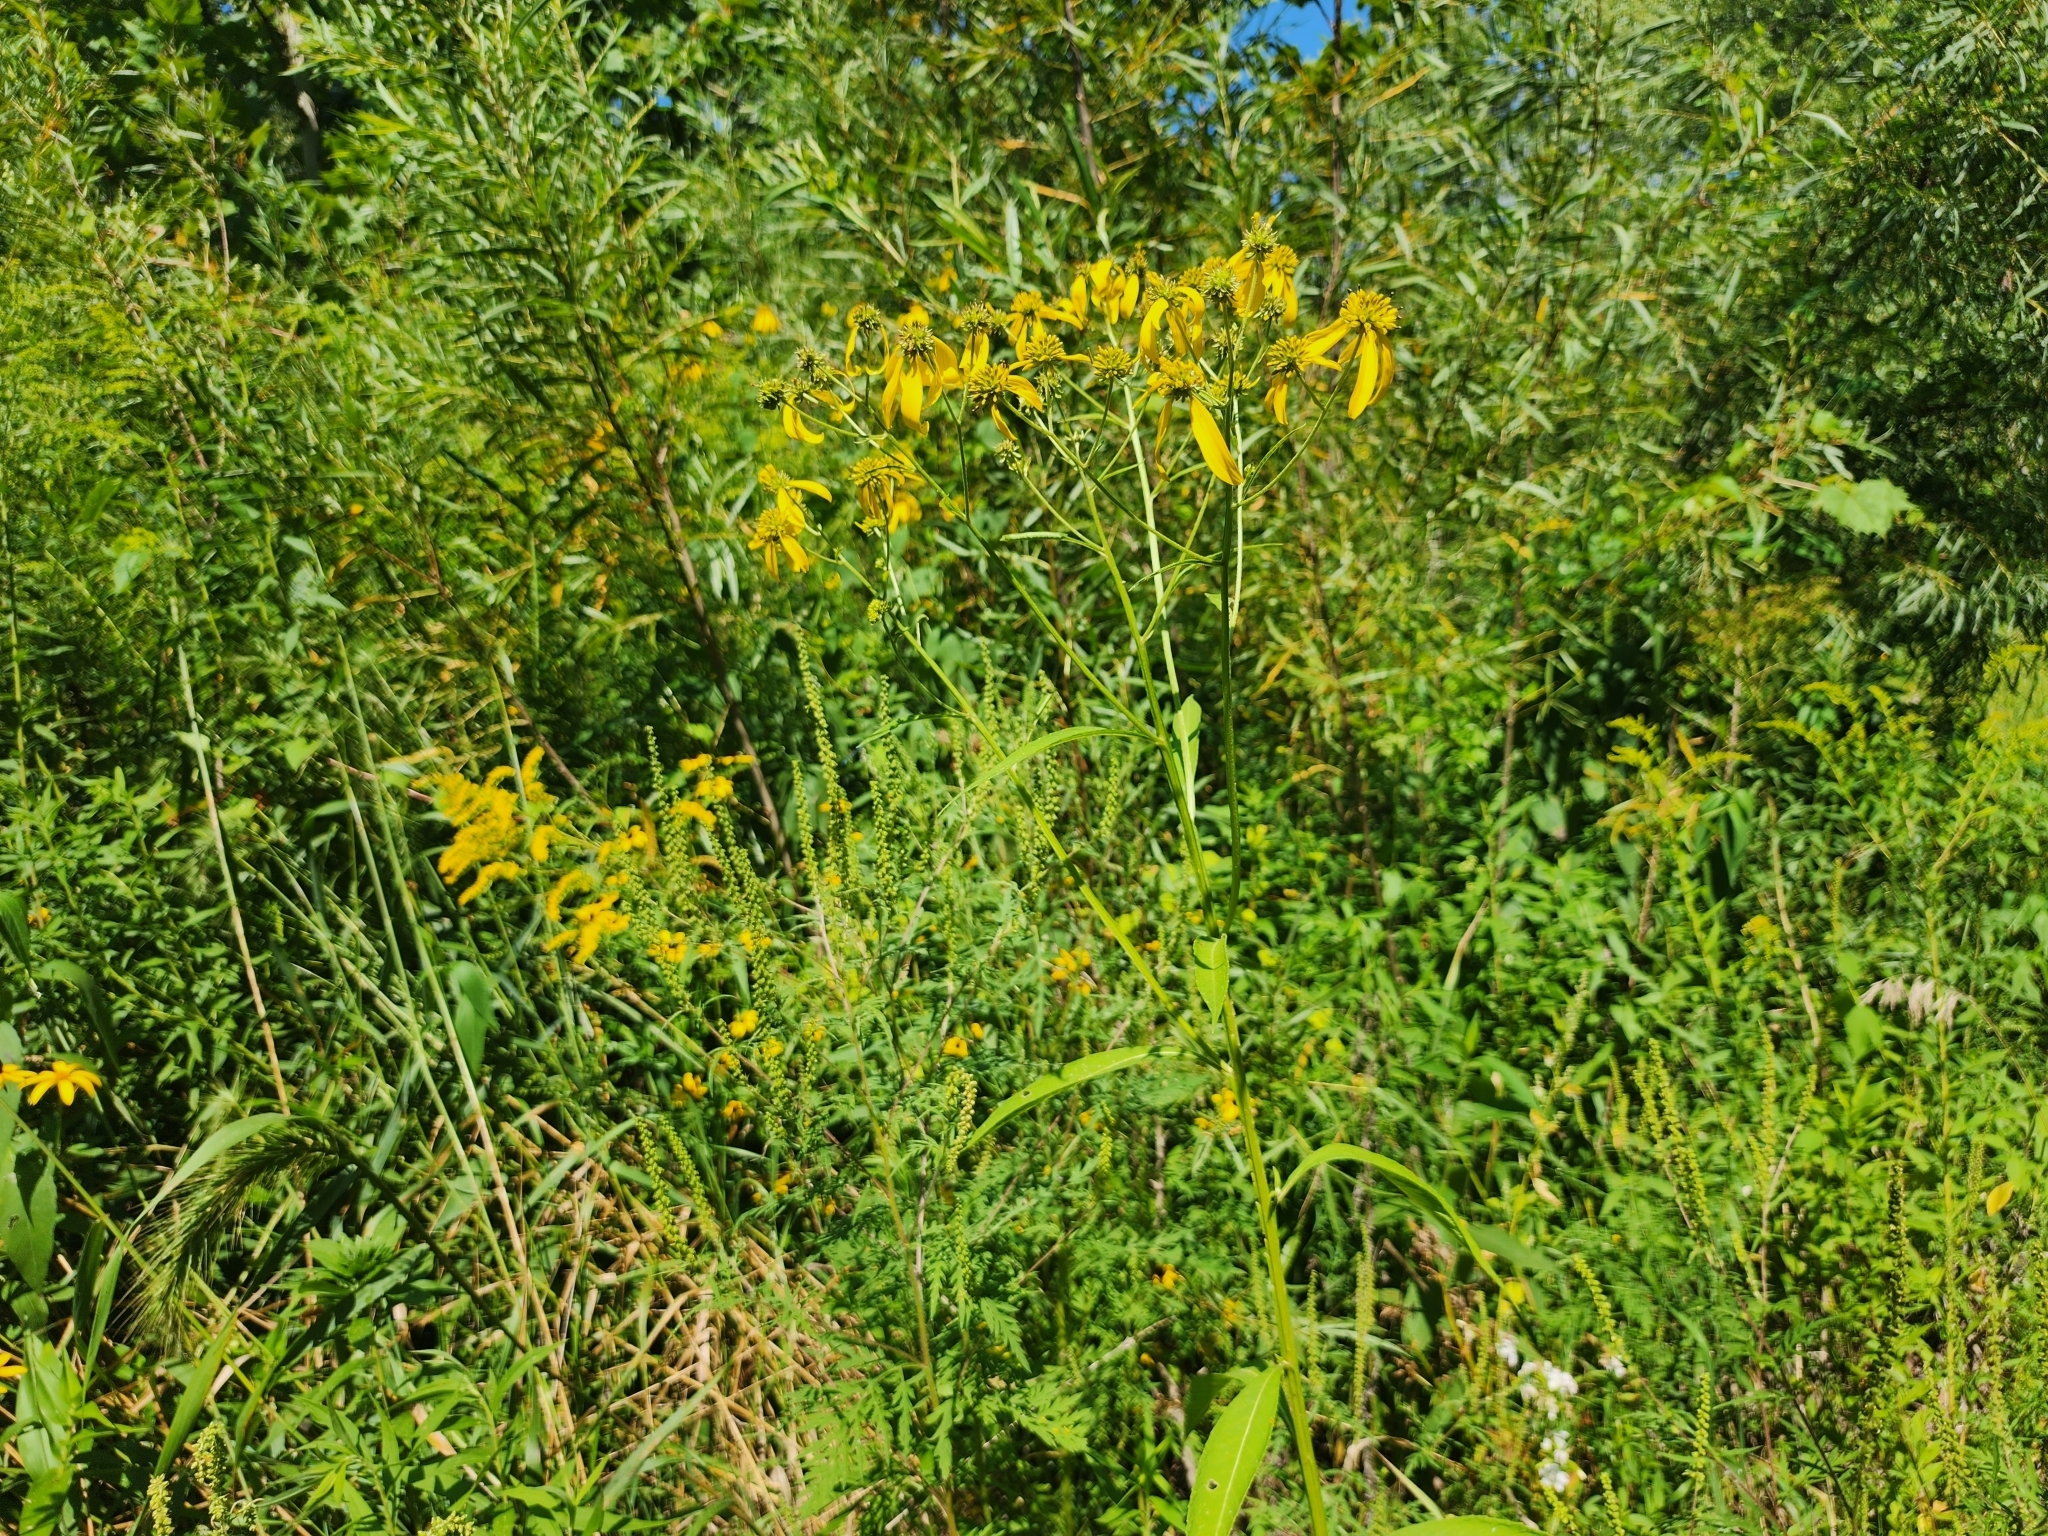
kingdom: Plantae
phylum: Tracheophyta
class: Magnoliopsida
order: Asterales
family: Asteraceae
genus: Verbesina
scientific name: Verbesina alternifolia
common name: Wingstem
